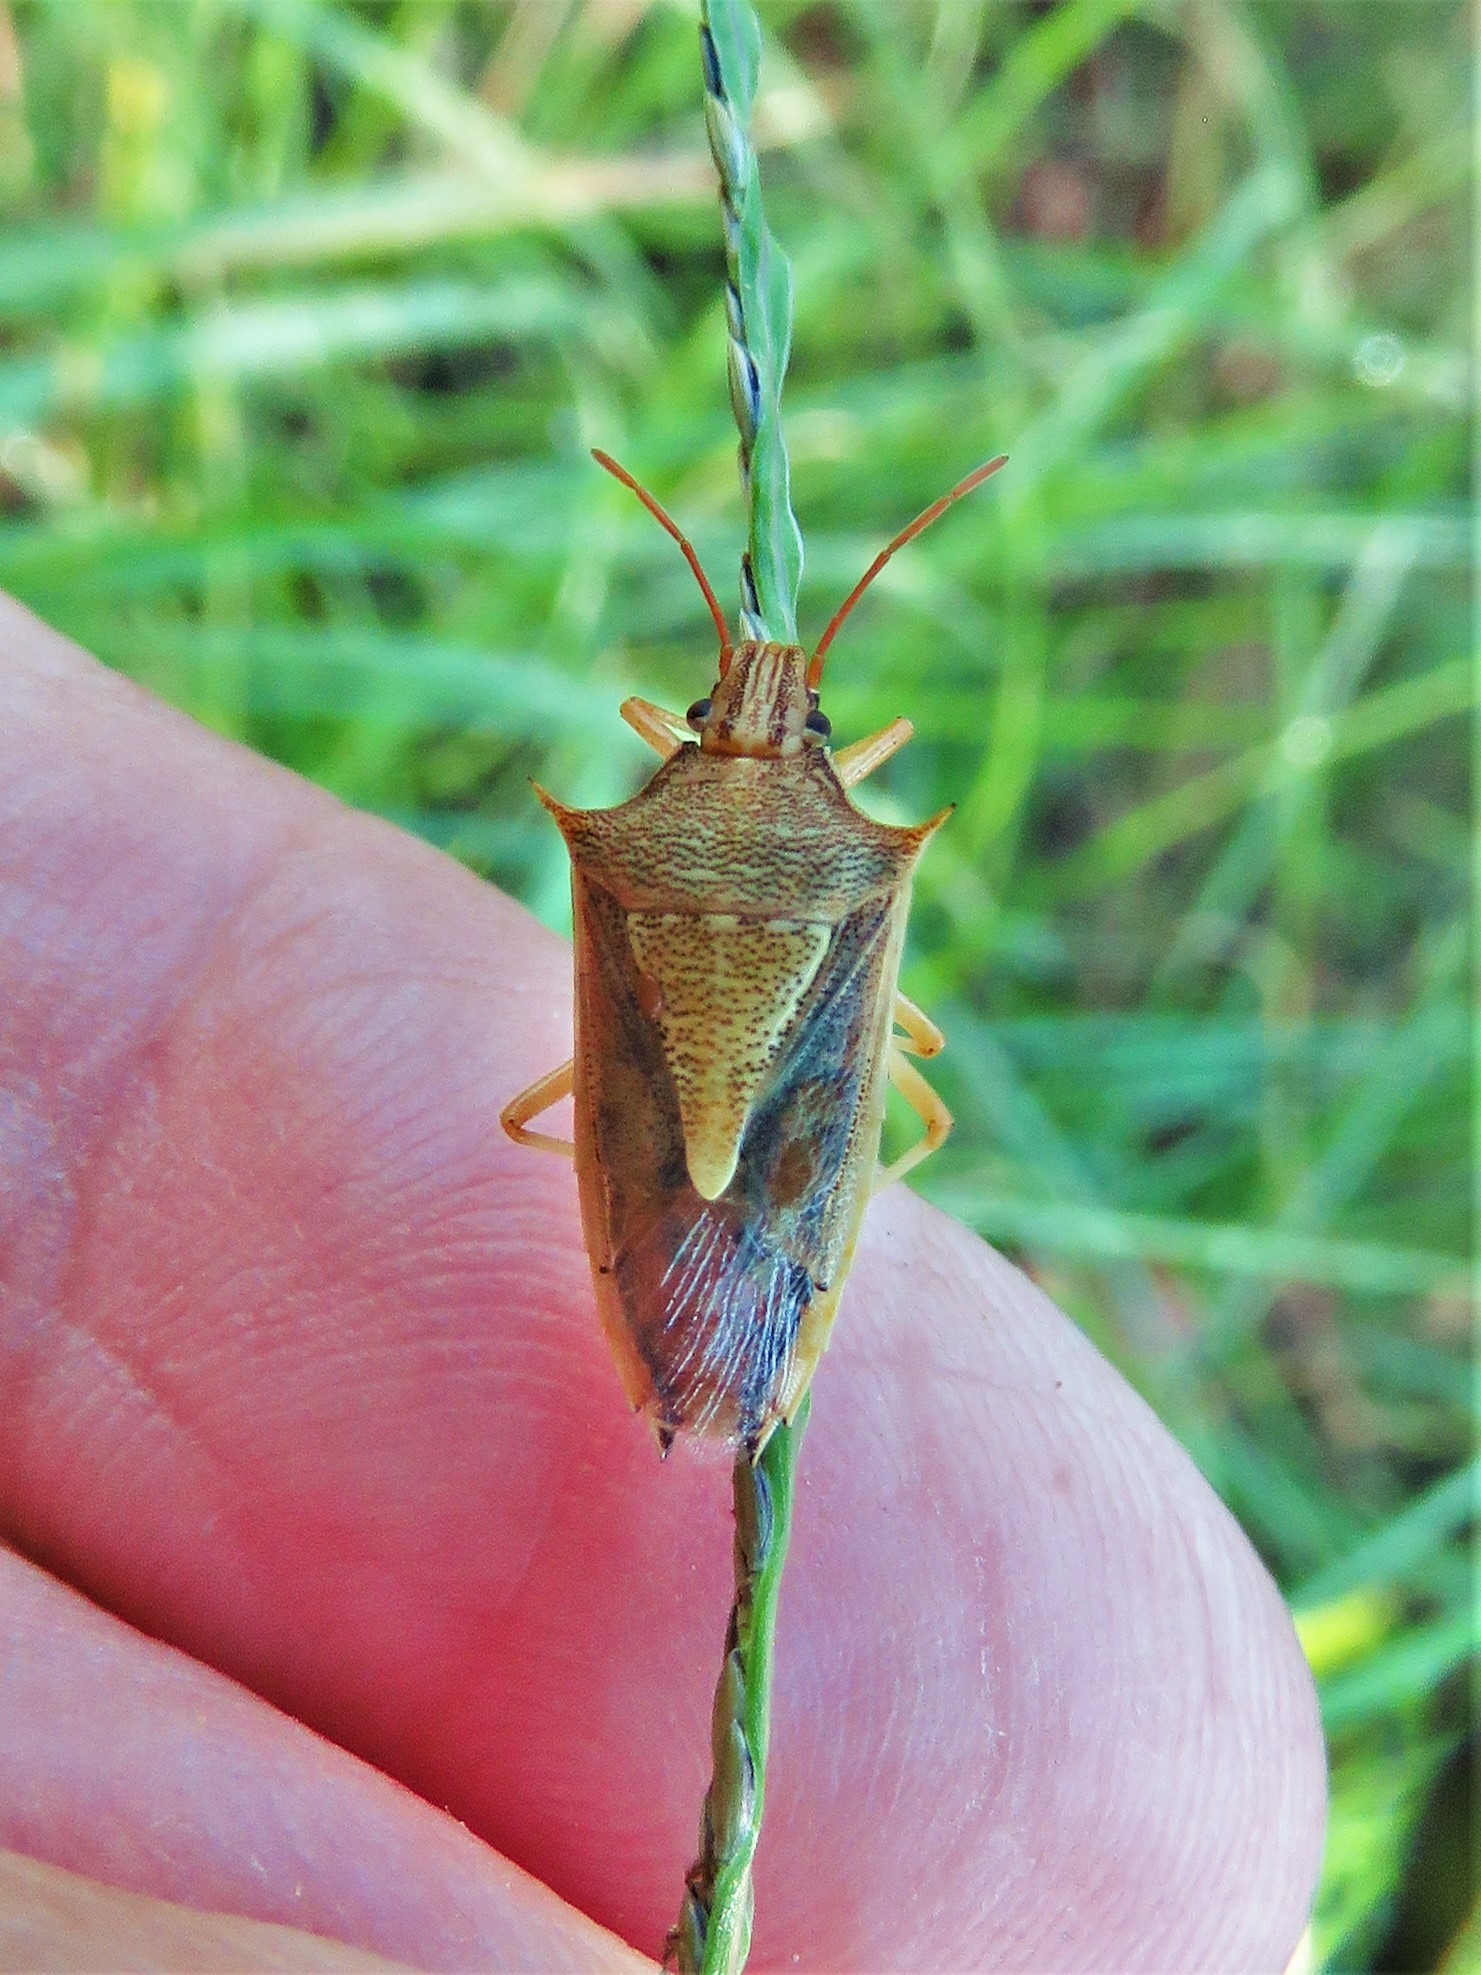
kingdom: Animalia
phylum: Arthropoda
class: Insecta
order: Hemiptera
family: Pentatomidae
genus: Oebalus
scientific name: Oebalus pugnax
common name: Rice stink bug
